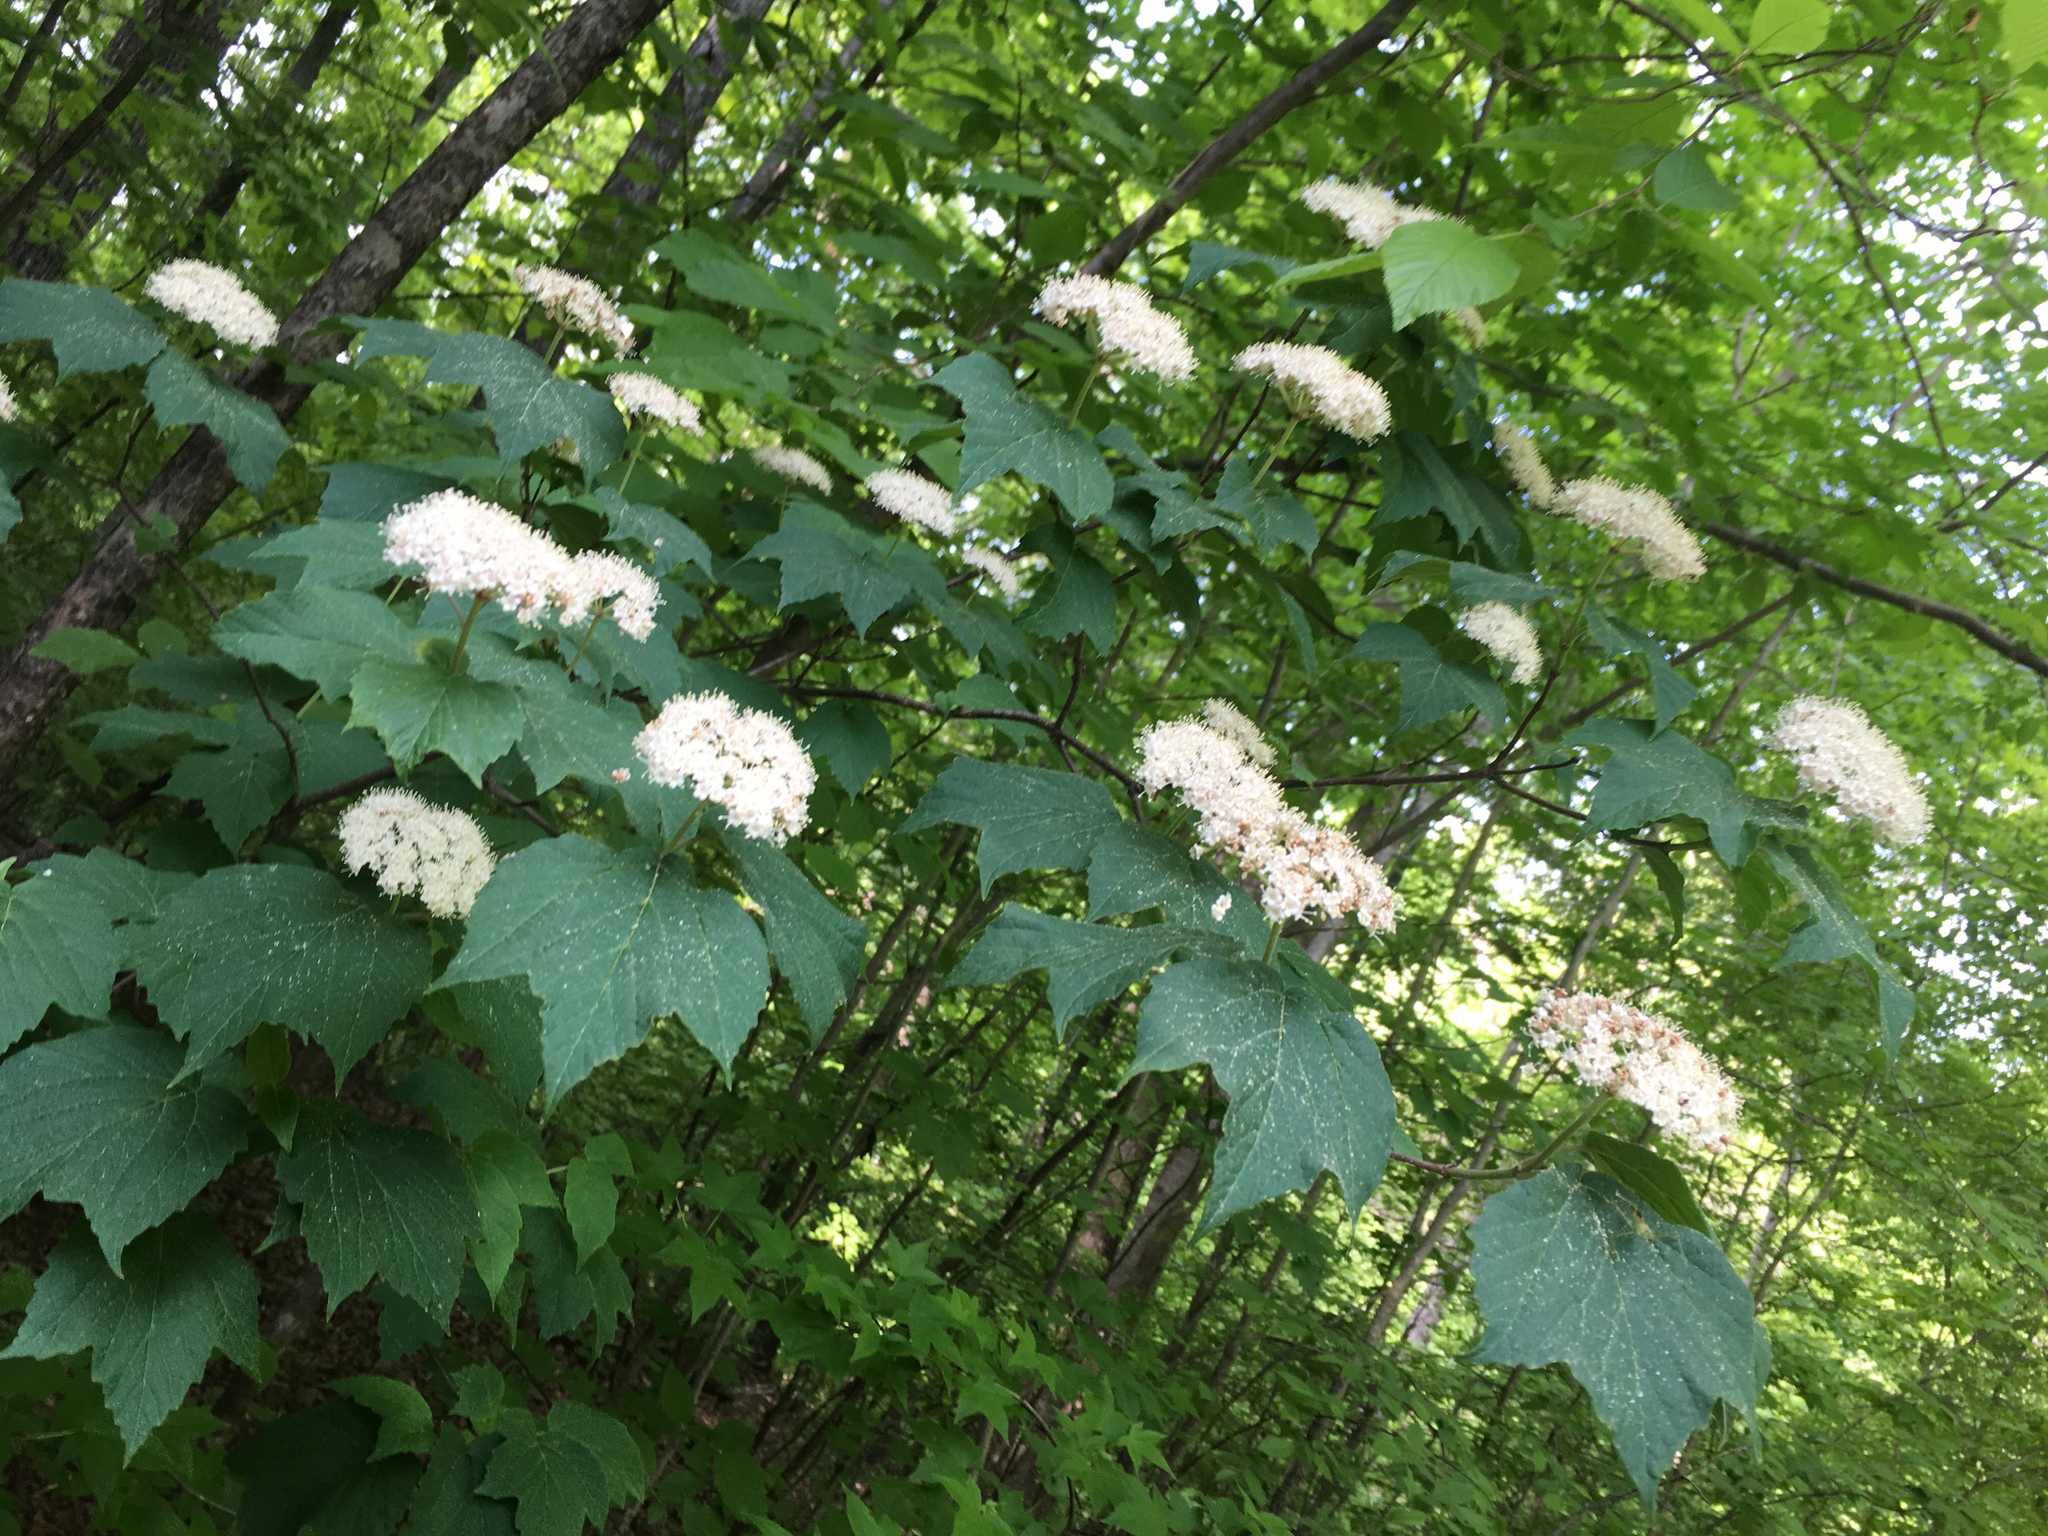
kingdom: Plantae
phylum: Tracheophyta
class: Magnoliopsida
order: Dipsacales
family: Viburnaceae
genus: Viburnum
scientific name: Viburnum acerifolium
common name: Dockmackie
